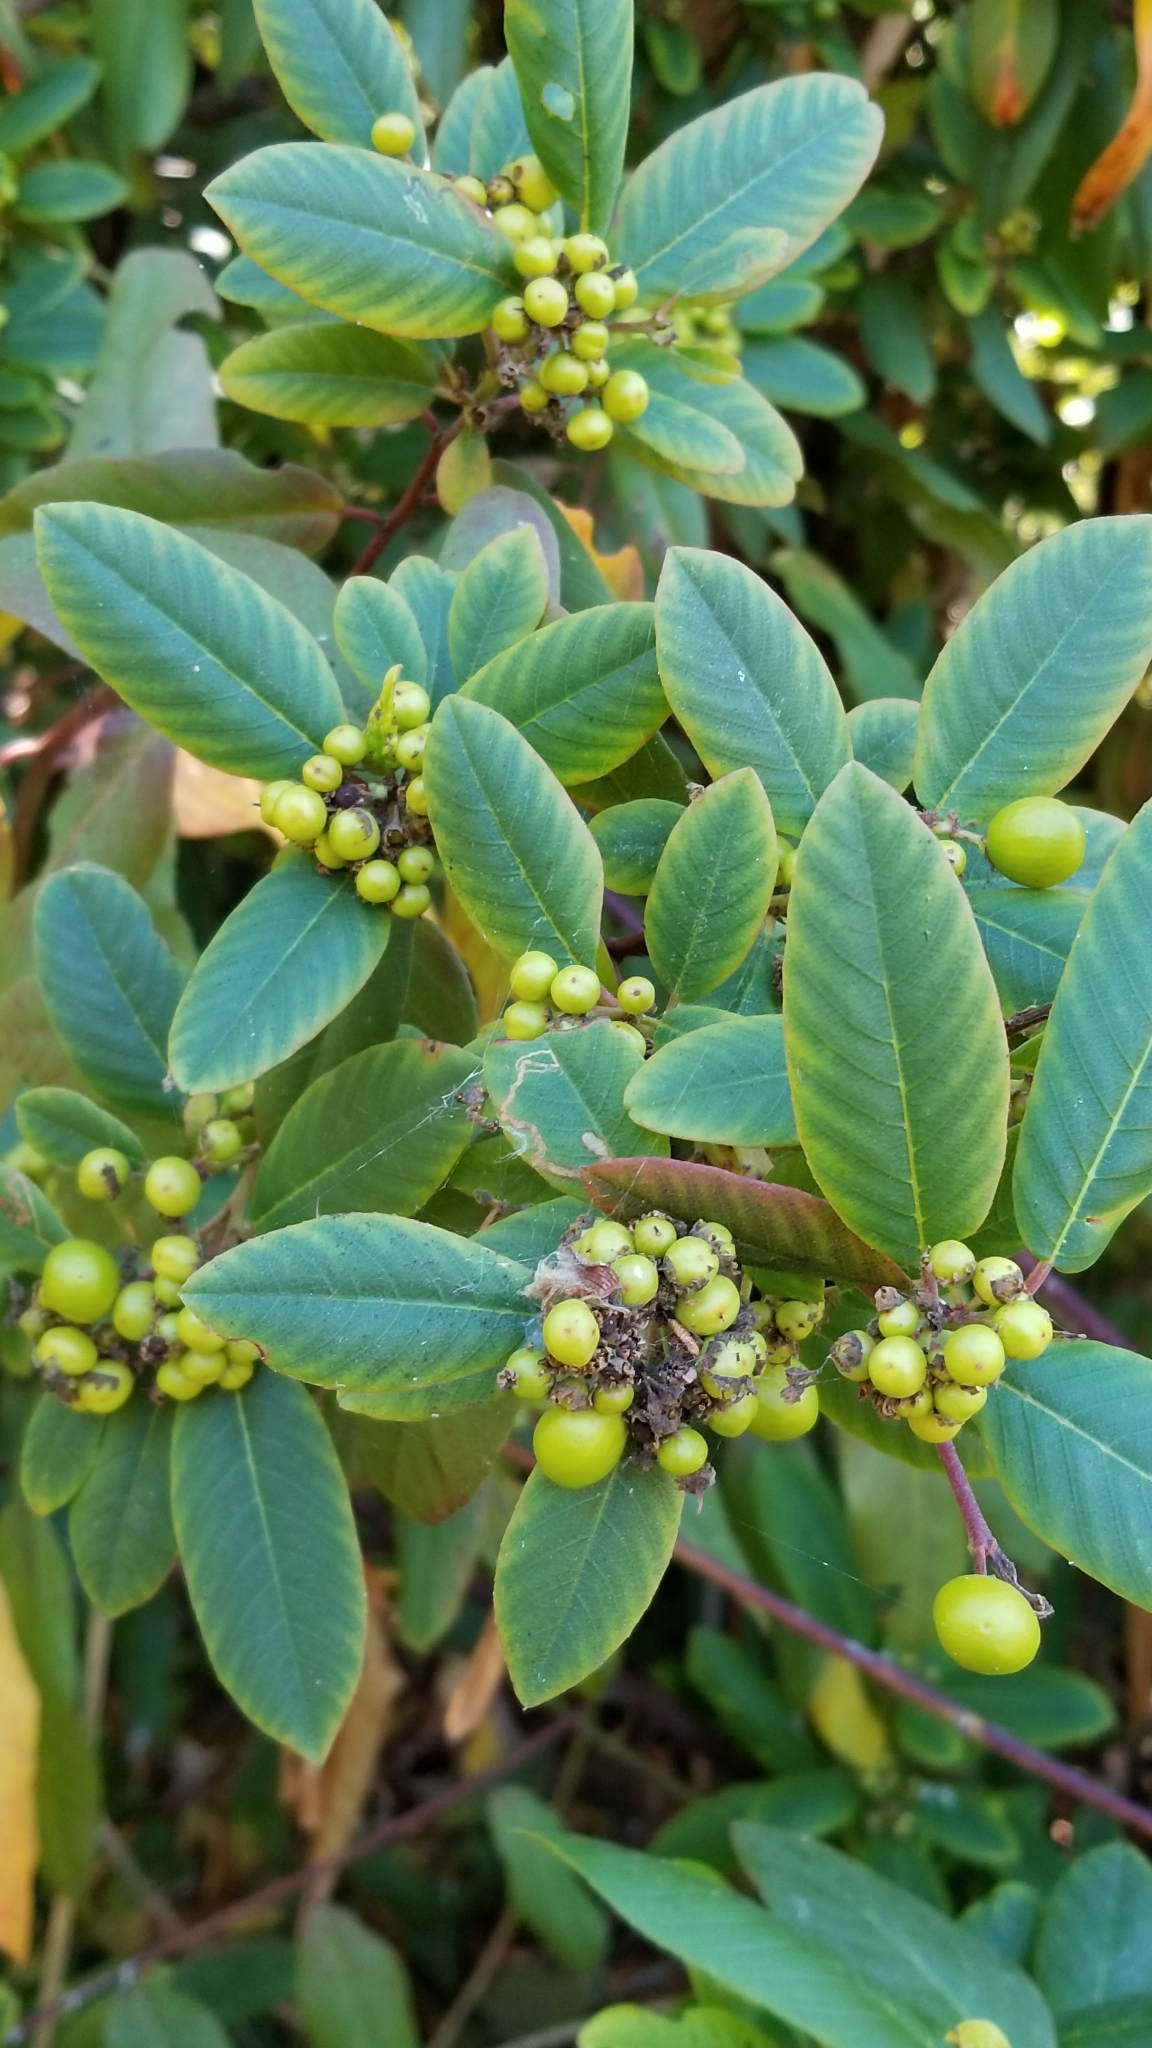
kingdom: Plantae
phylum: Tracheophyta
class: Magnoliopsida
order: Rosales
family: Rhamnaceae
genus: Frangula
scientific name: Frangula californica
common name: California buckthorn
